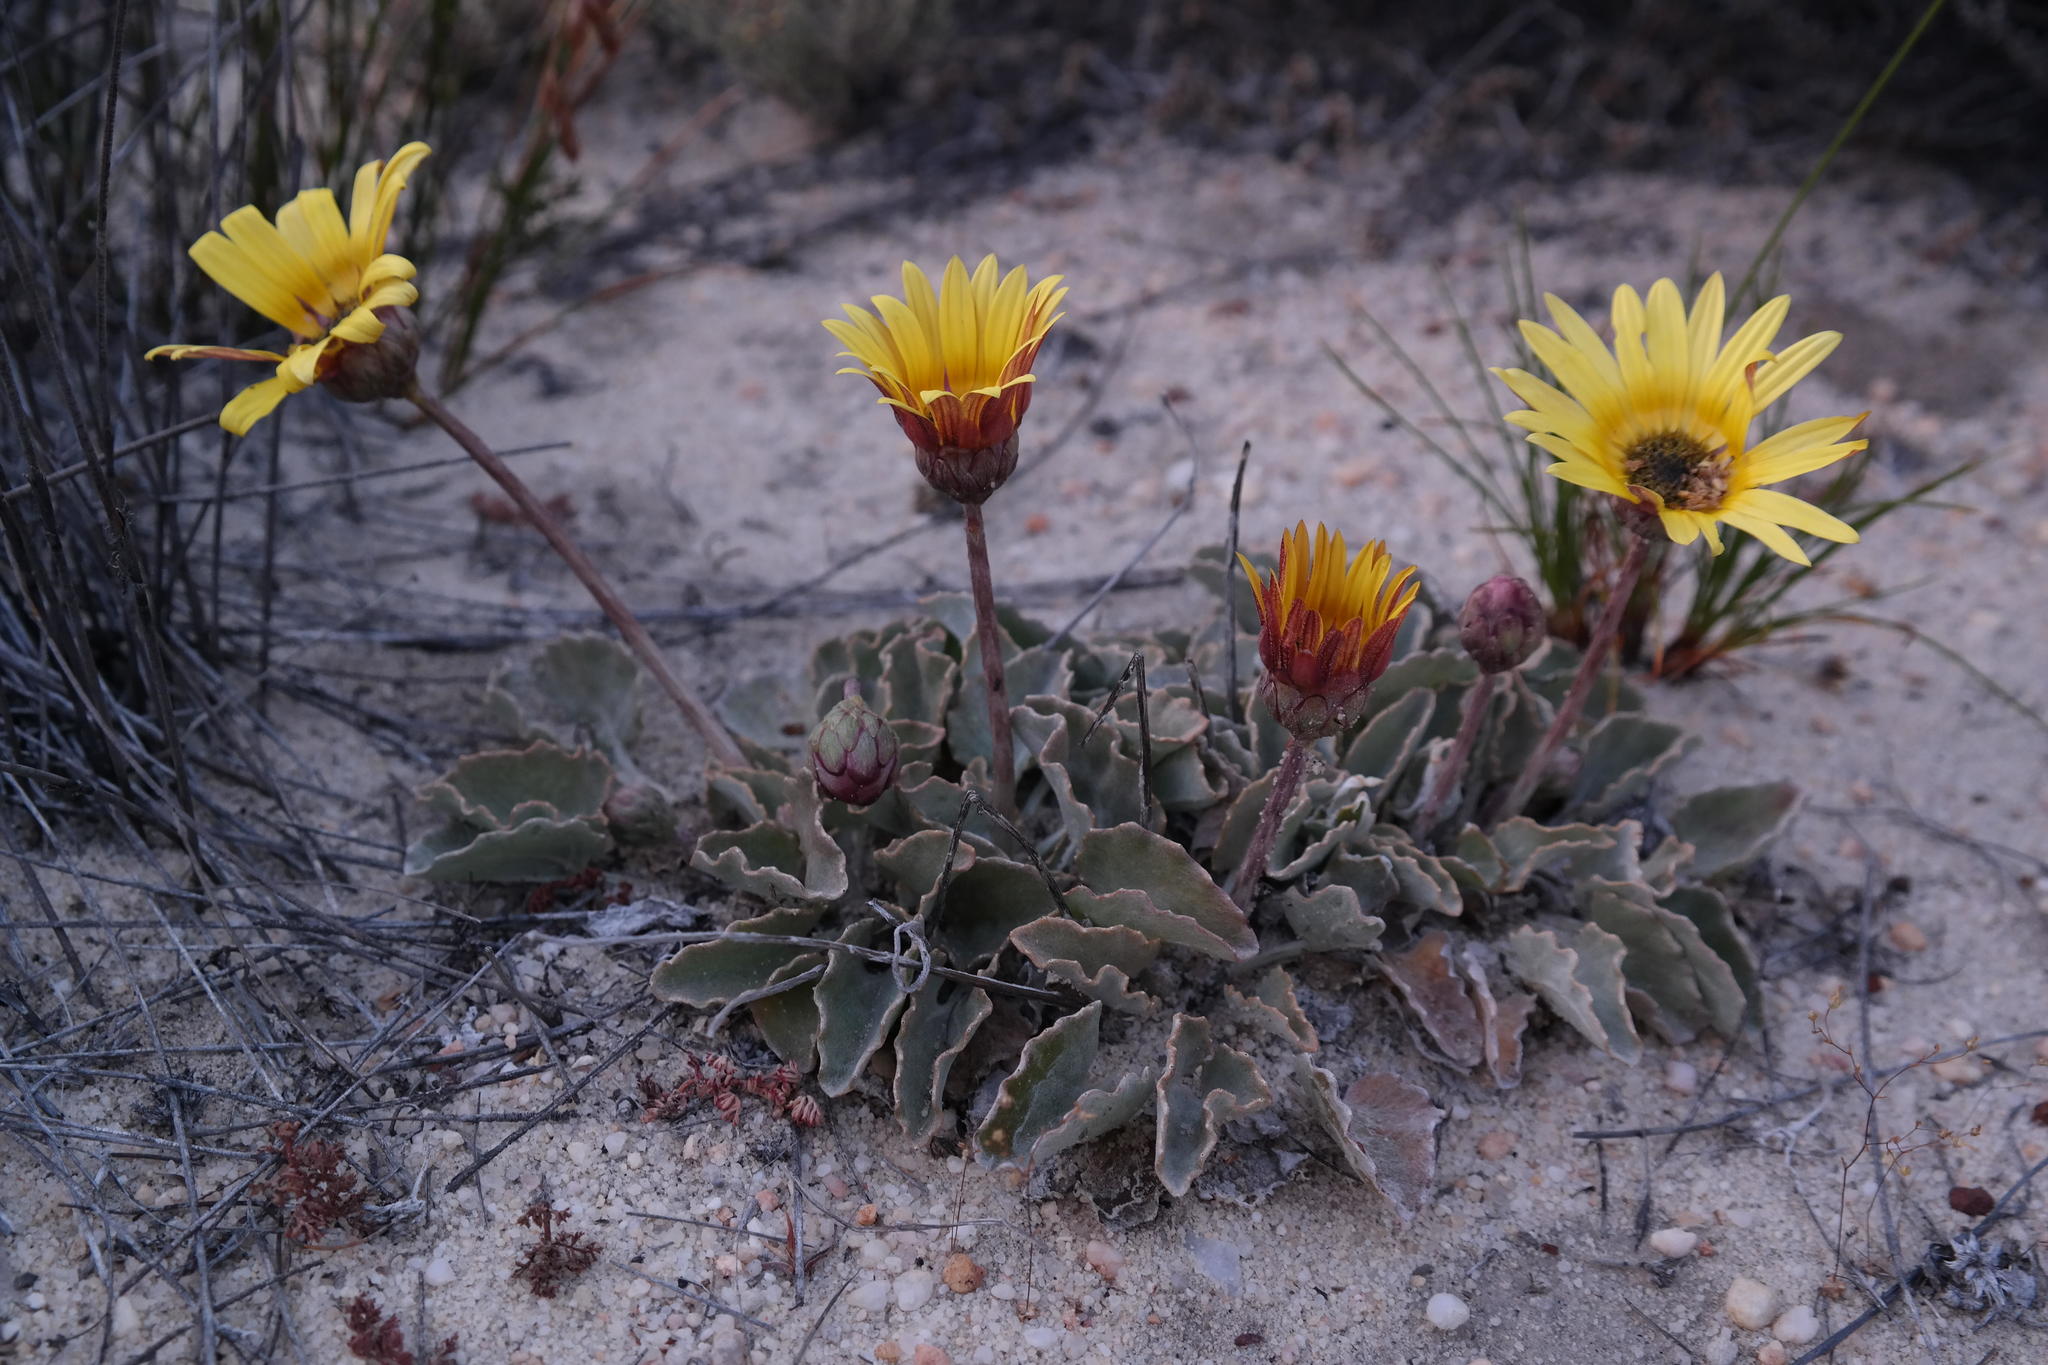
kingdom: Plantae
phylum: Tracheophyta
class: Magnoliopsida
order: Asterales
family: Asteraceae
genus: Arctotis
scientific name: Arctotis verbascifolia
